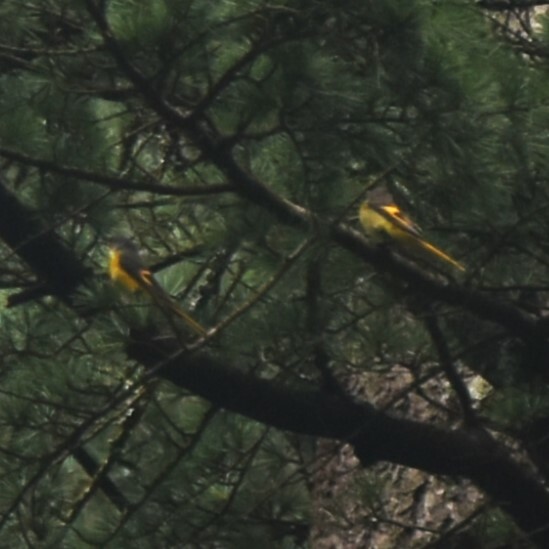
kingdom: Animalia
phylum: Chordata
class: Aves
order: Passeriformes
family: Campephagidae
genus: Pericrocotus
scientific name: Pericrocotus ethologus
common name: Long-tailed minivet
